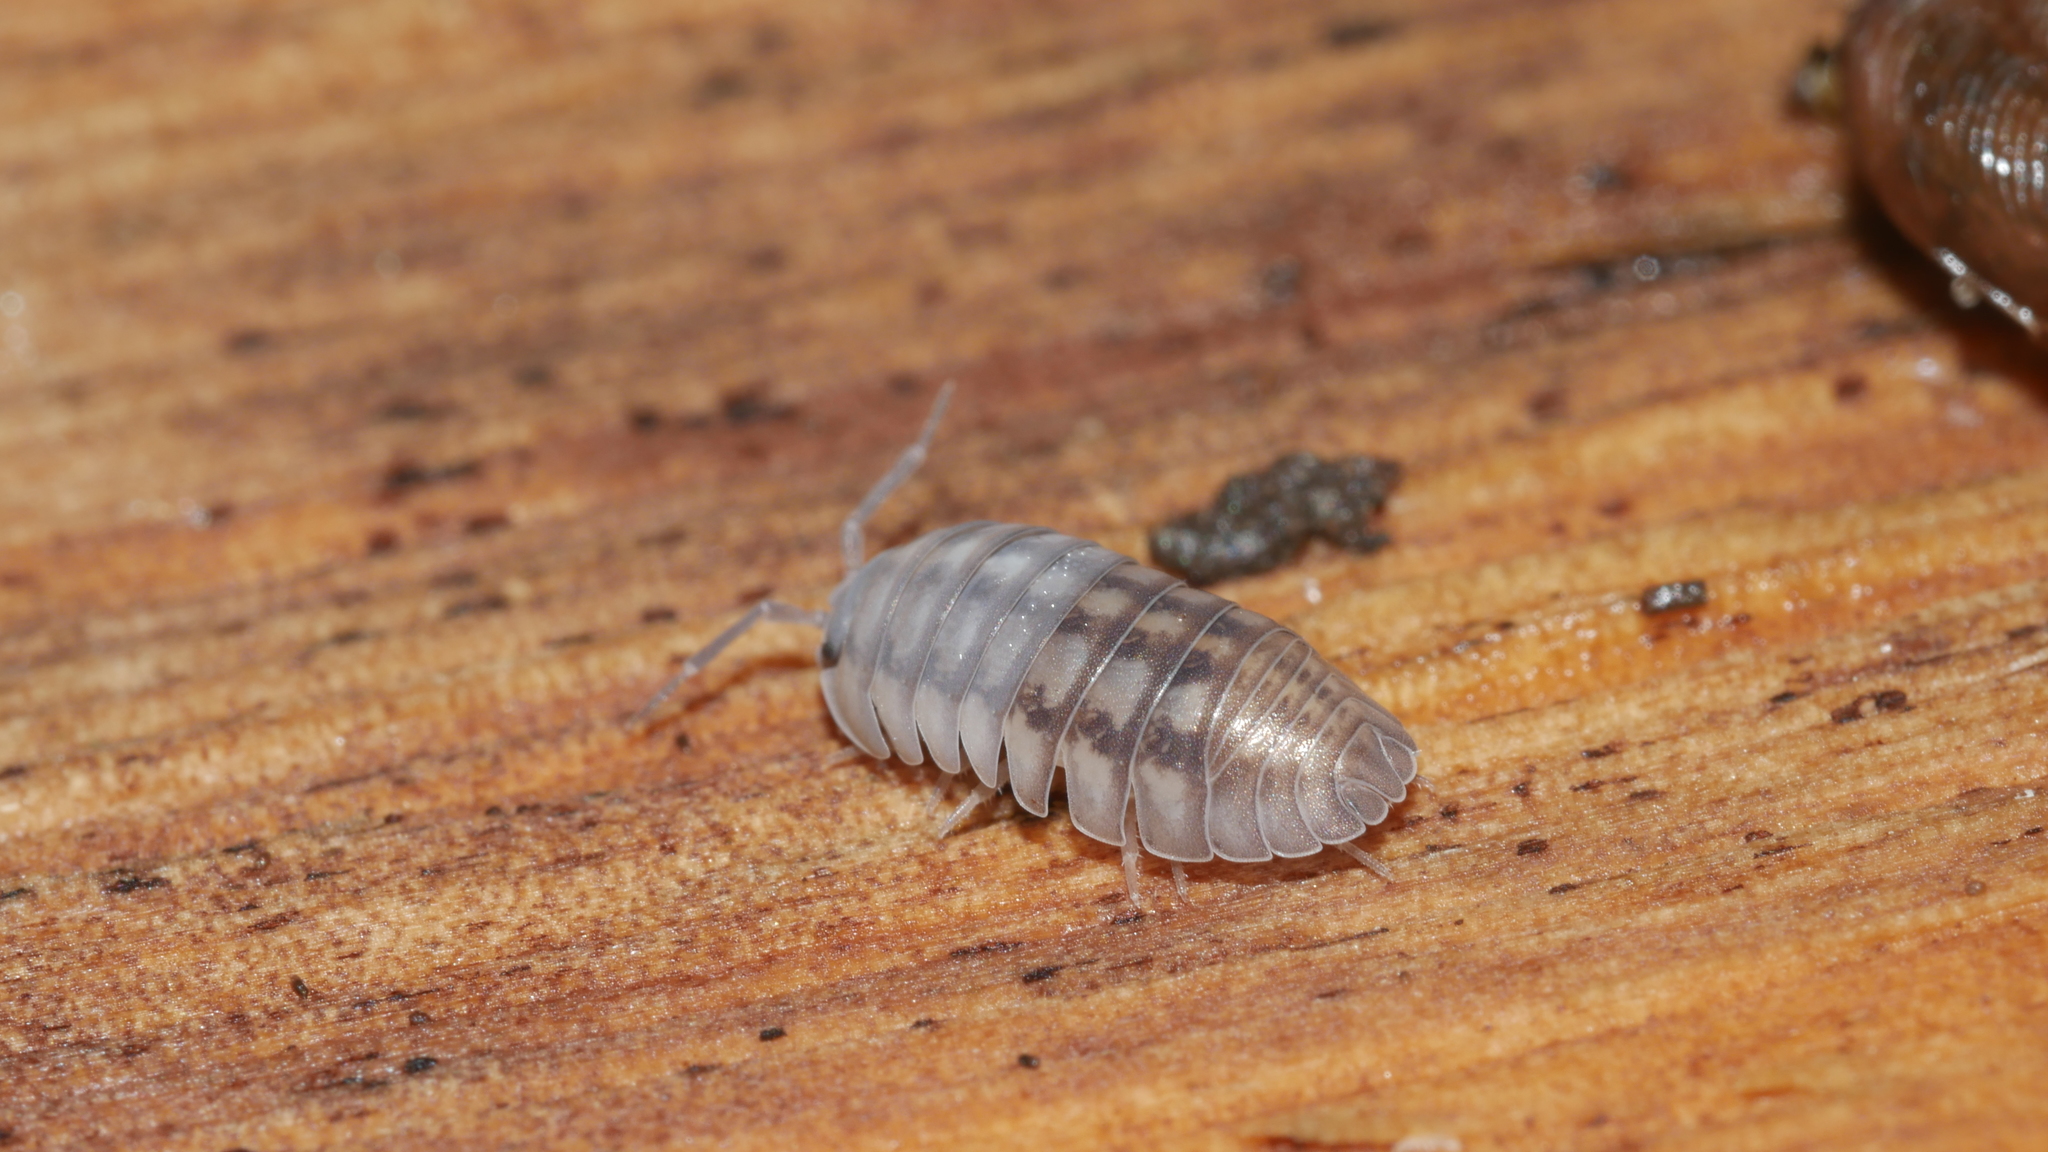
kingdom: Animalia
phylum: Arthropoda
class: Malacostraca
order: Isopoda
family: Armadillidiidae
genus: Armadillidium
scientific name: Armadillidium nasatum
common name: Isopod
